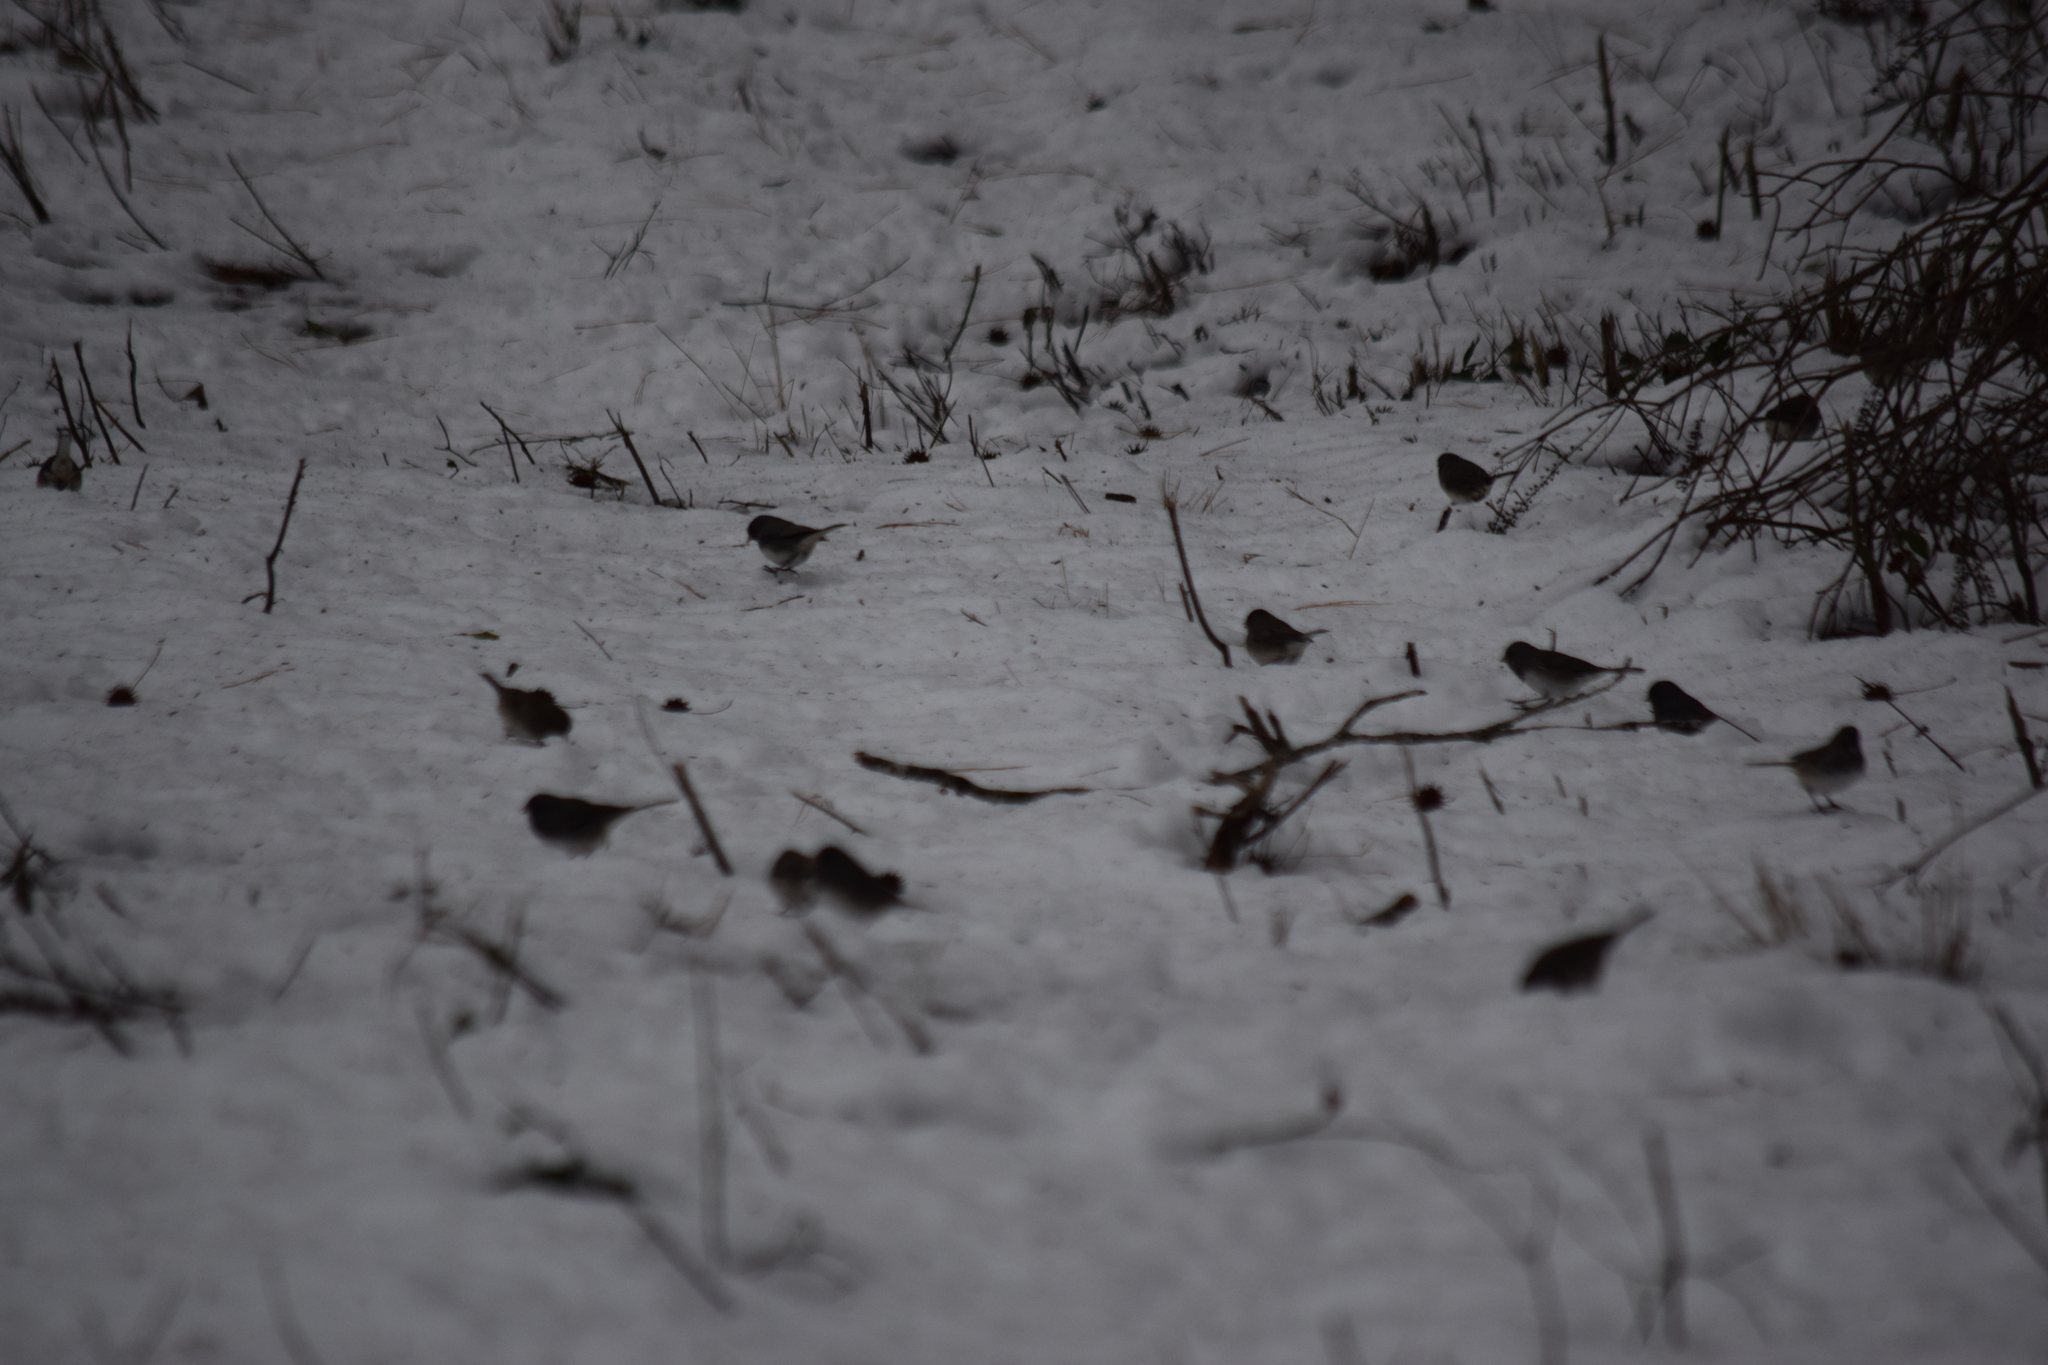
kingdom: Animalia
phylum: Chordata
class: Aves
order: Passeriformes
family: Passerellidae
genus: Junco
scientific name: Junco hyemalis
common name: Dark-eyed junco
